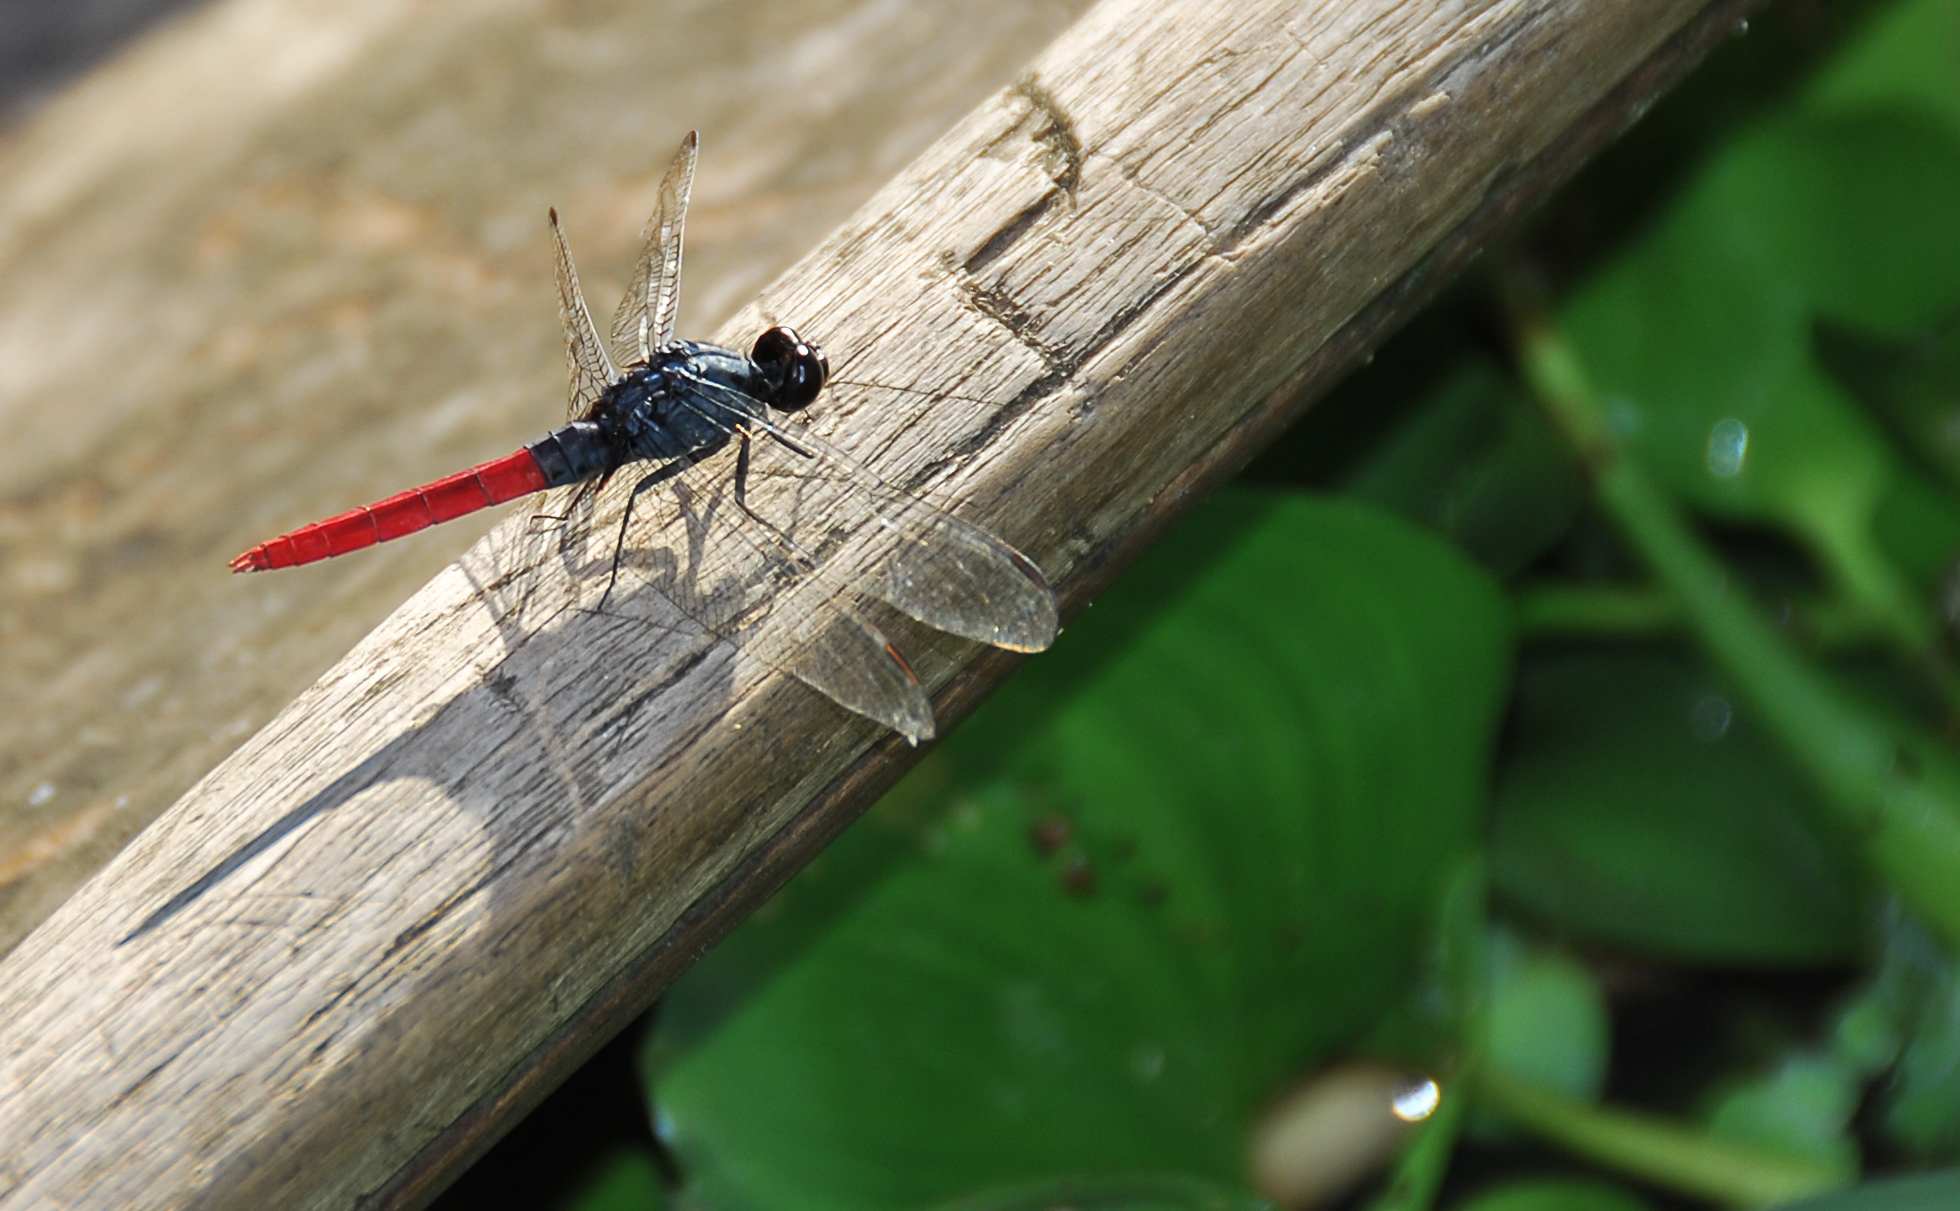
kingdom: Animalia
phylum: Arthropoda
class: Insecta
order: Odonata
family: Libellulidae
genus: Erythemis
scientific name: Erythemis peruviana
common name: Flame-tailed pondhawk
